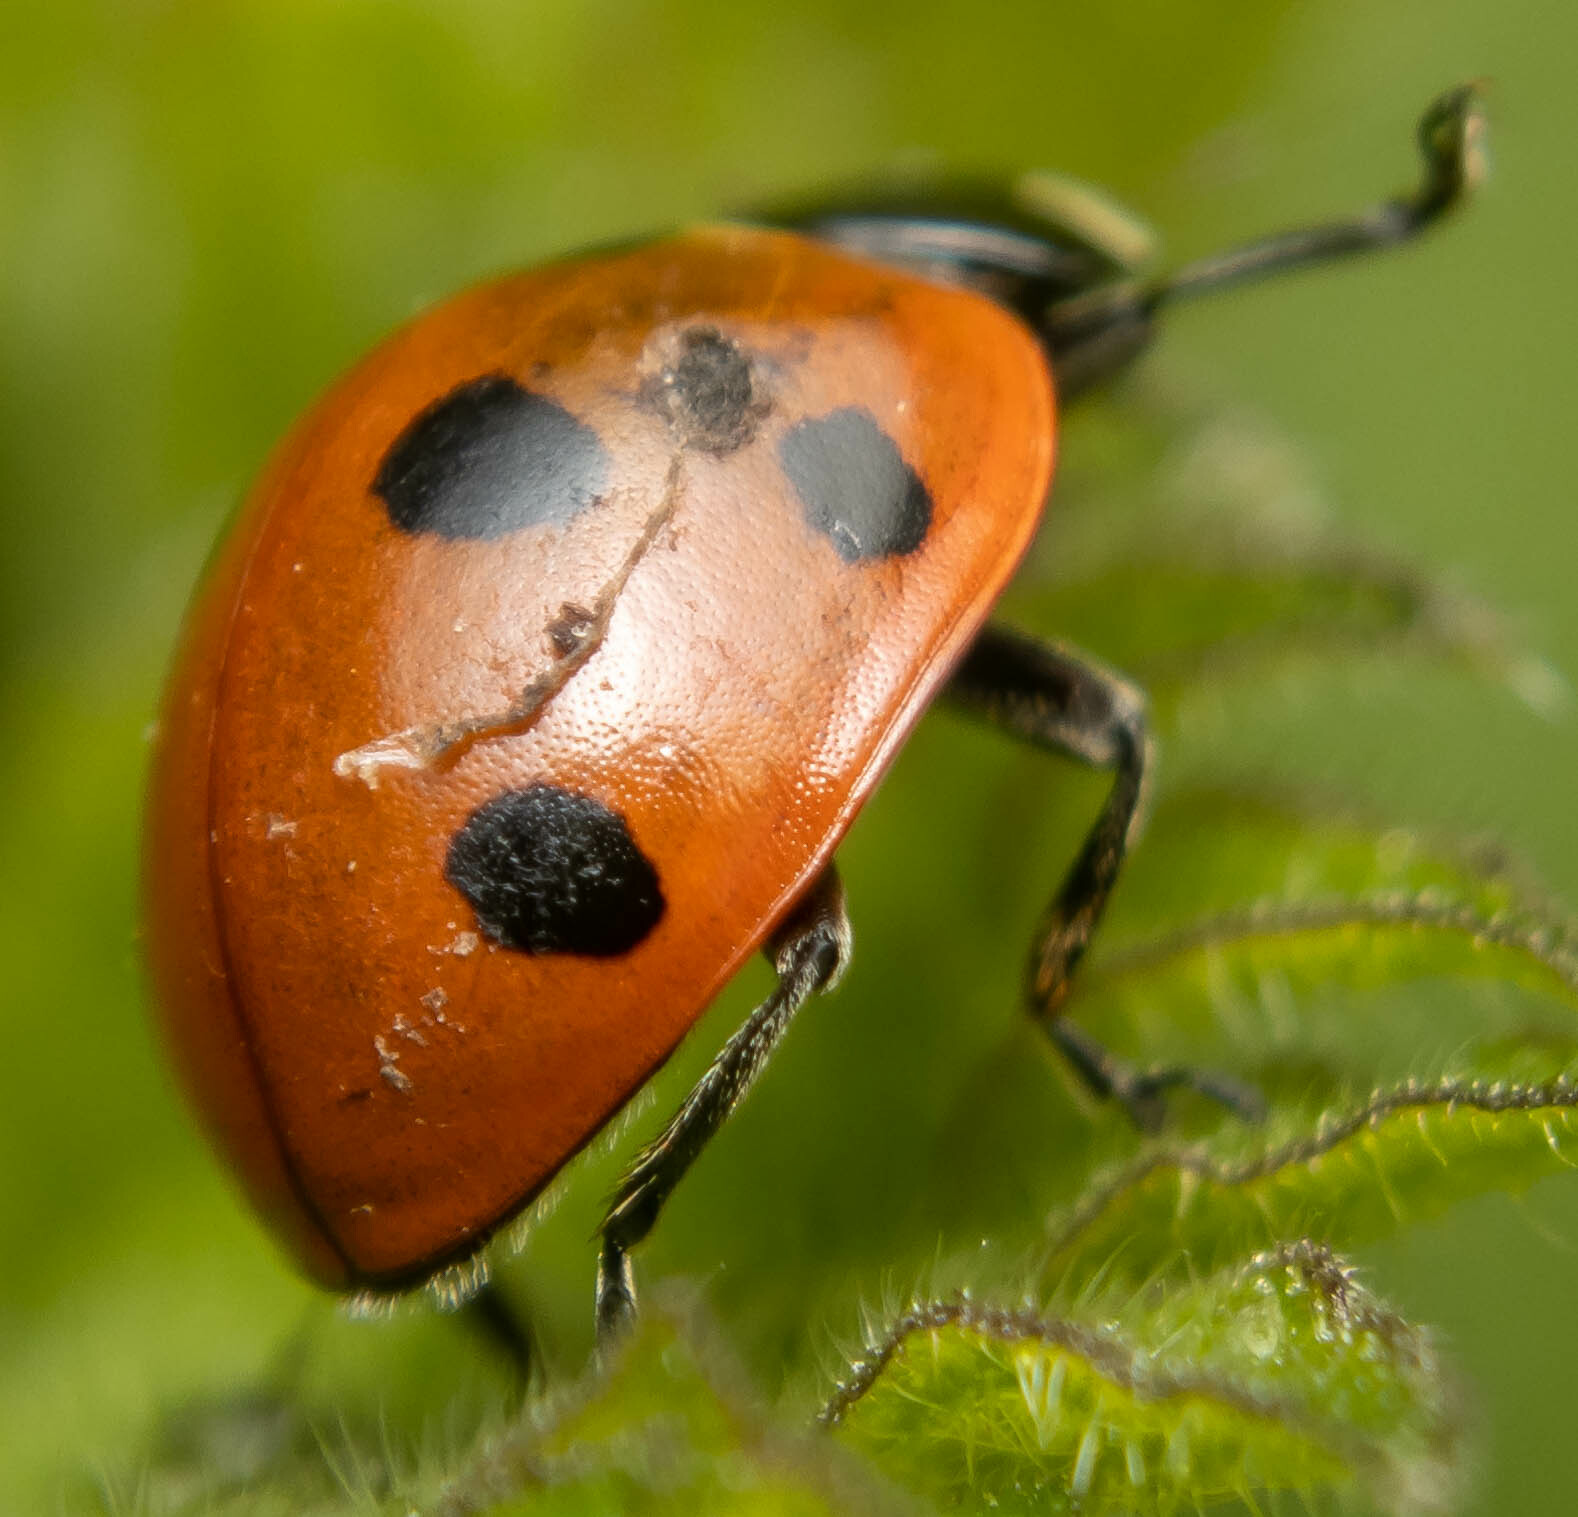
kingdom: Animalia
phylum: Arthropoda
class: Insecta
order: Coleoptera
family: Coccinellidae
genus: Coccinella
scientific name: Coccinella septempunctata
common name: Sevenspotted lady beetle
